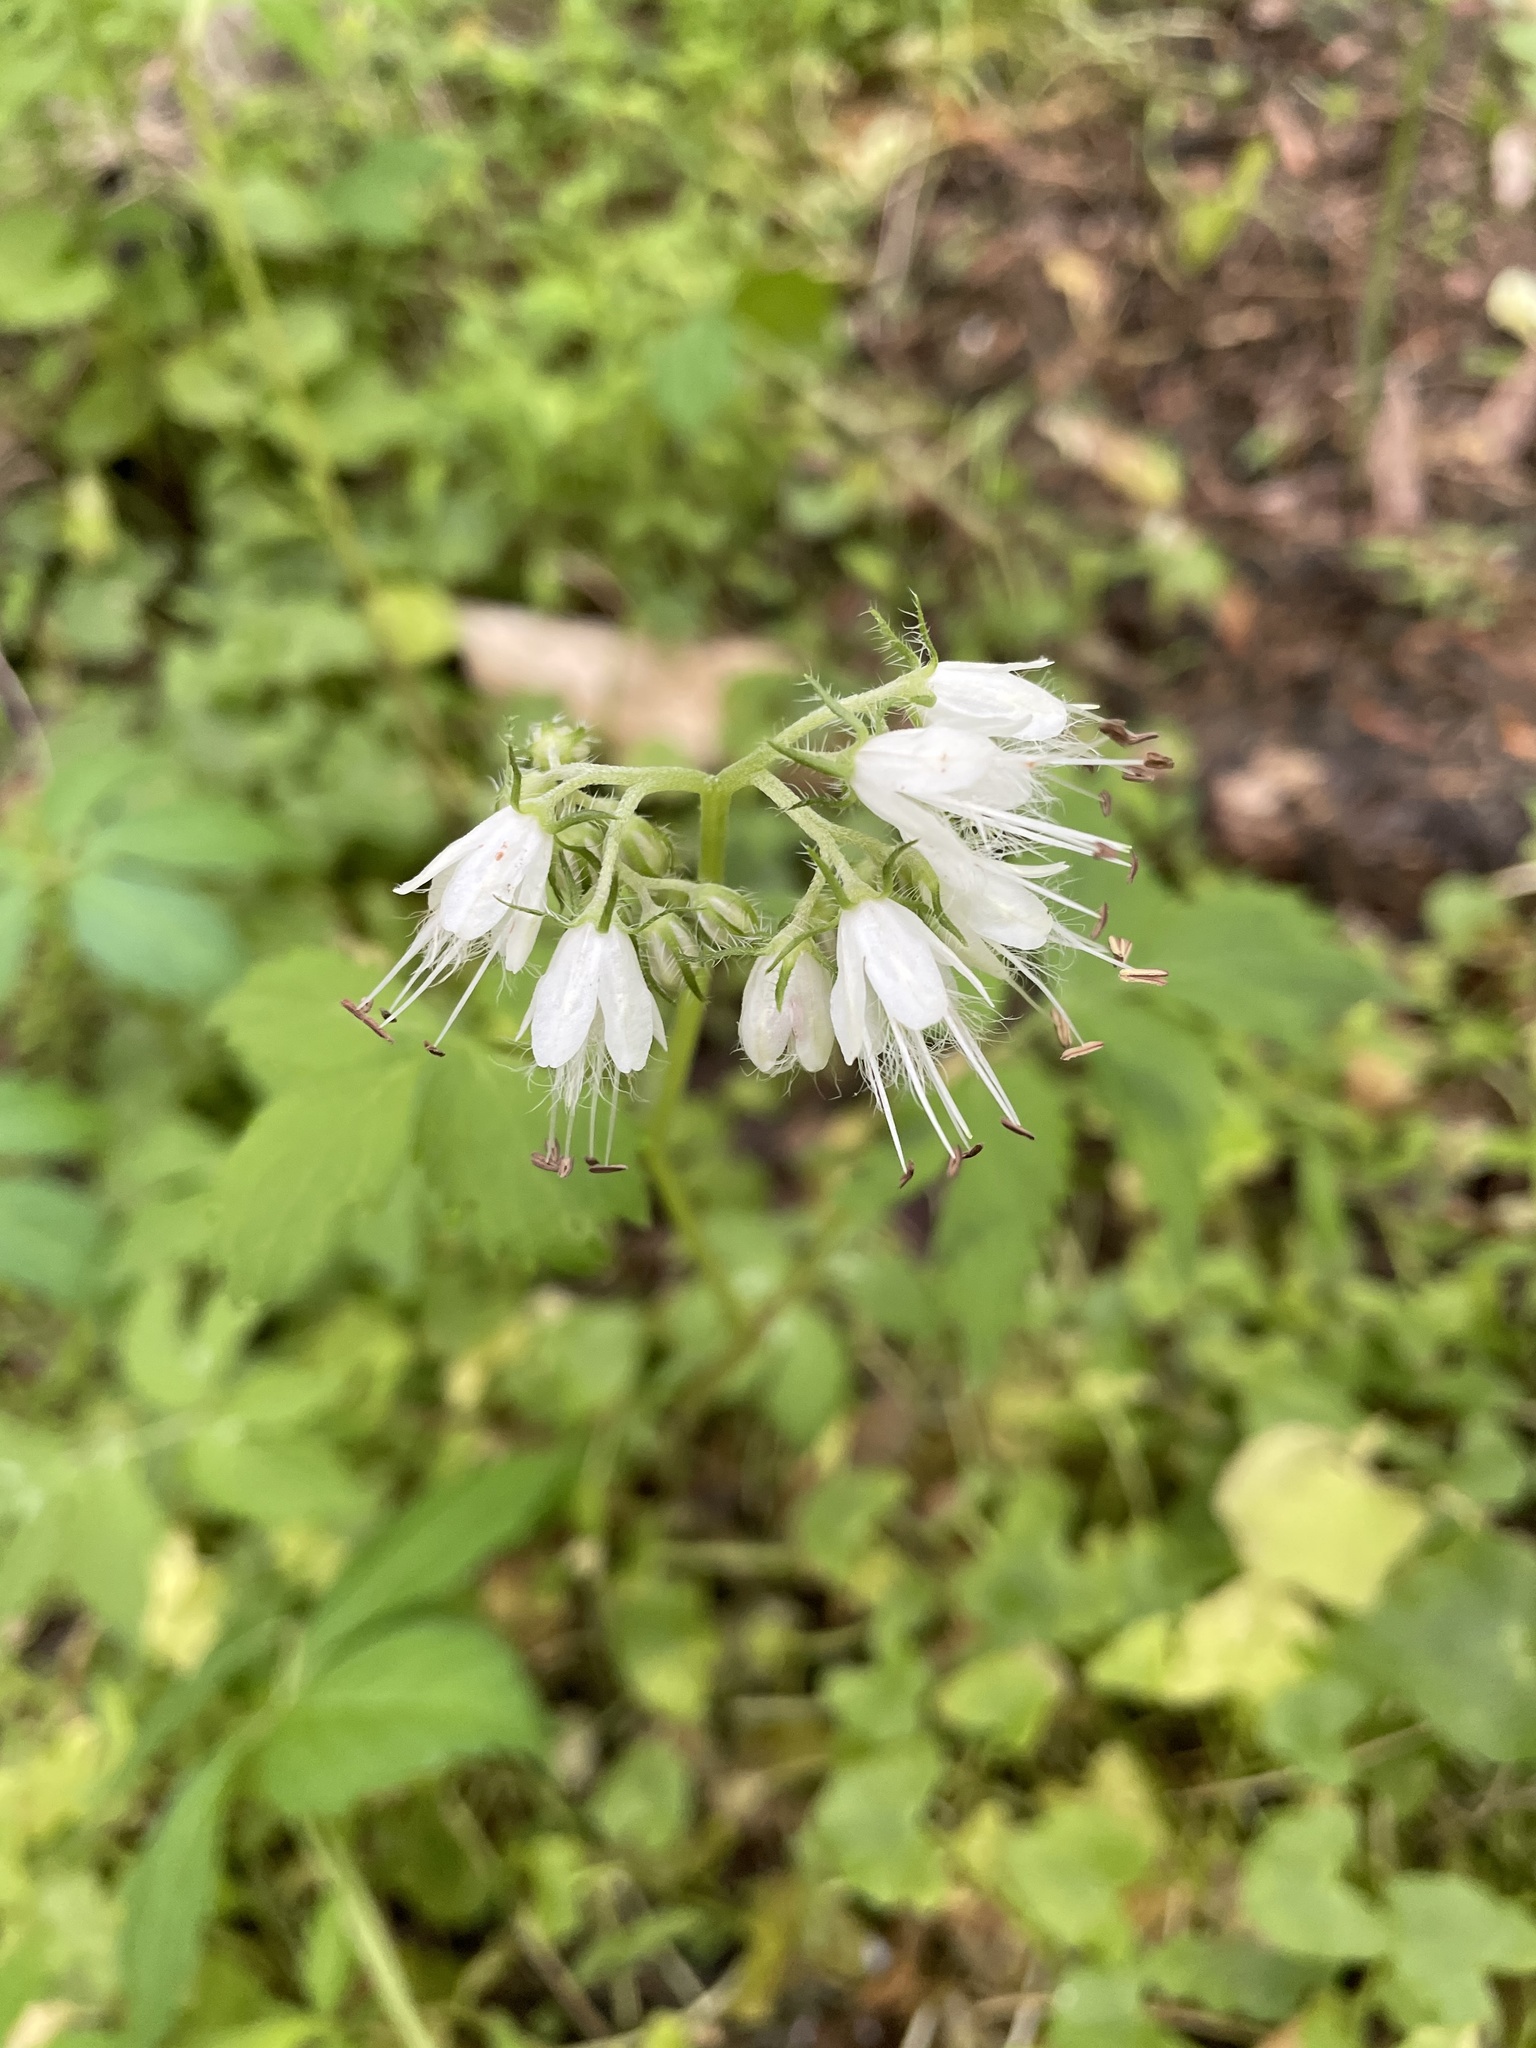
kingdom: Plantae
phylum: Tracheophyta
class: Magnoliopsida
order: Boraginales
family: Hydrophyllaceae
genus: Hydrophyllum
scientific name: Hydrophyllum virginianum
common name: Virginia waterleaf
